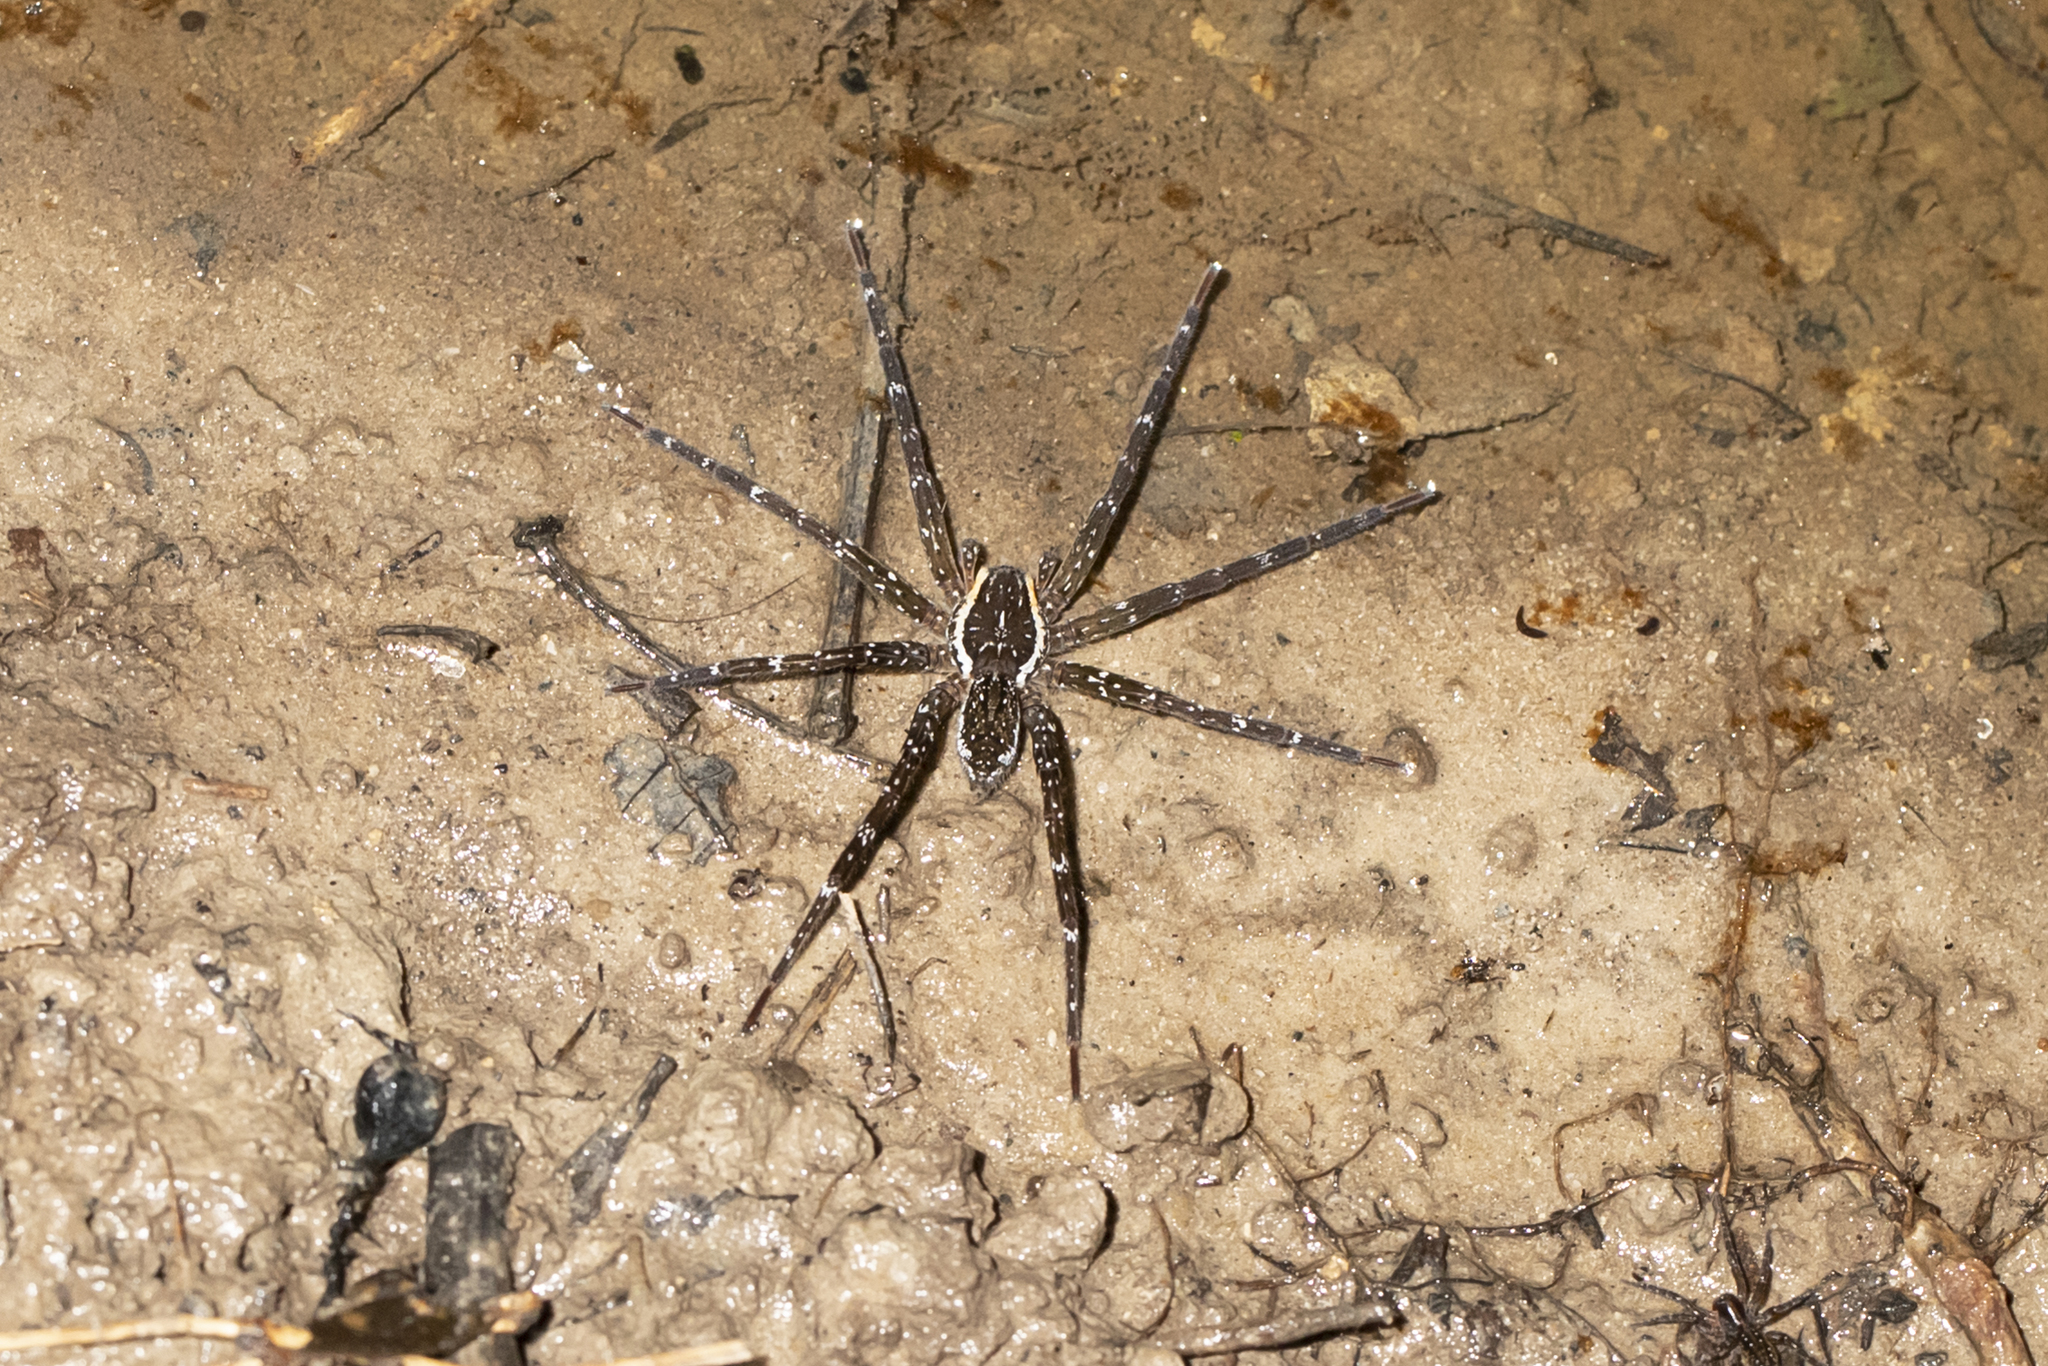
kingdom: Animalia
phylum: Arthropoda
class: Arachnida
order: Araneae
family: Pisauridae
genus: Dolomedes
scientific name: Dolomedes briangreenei
